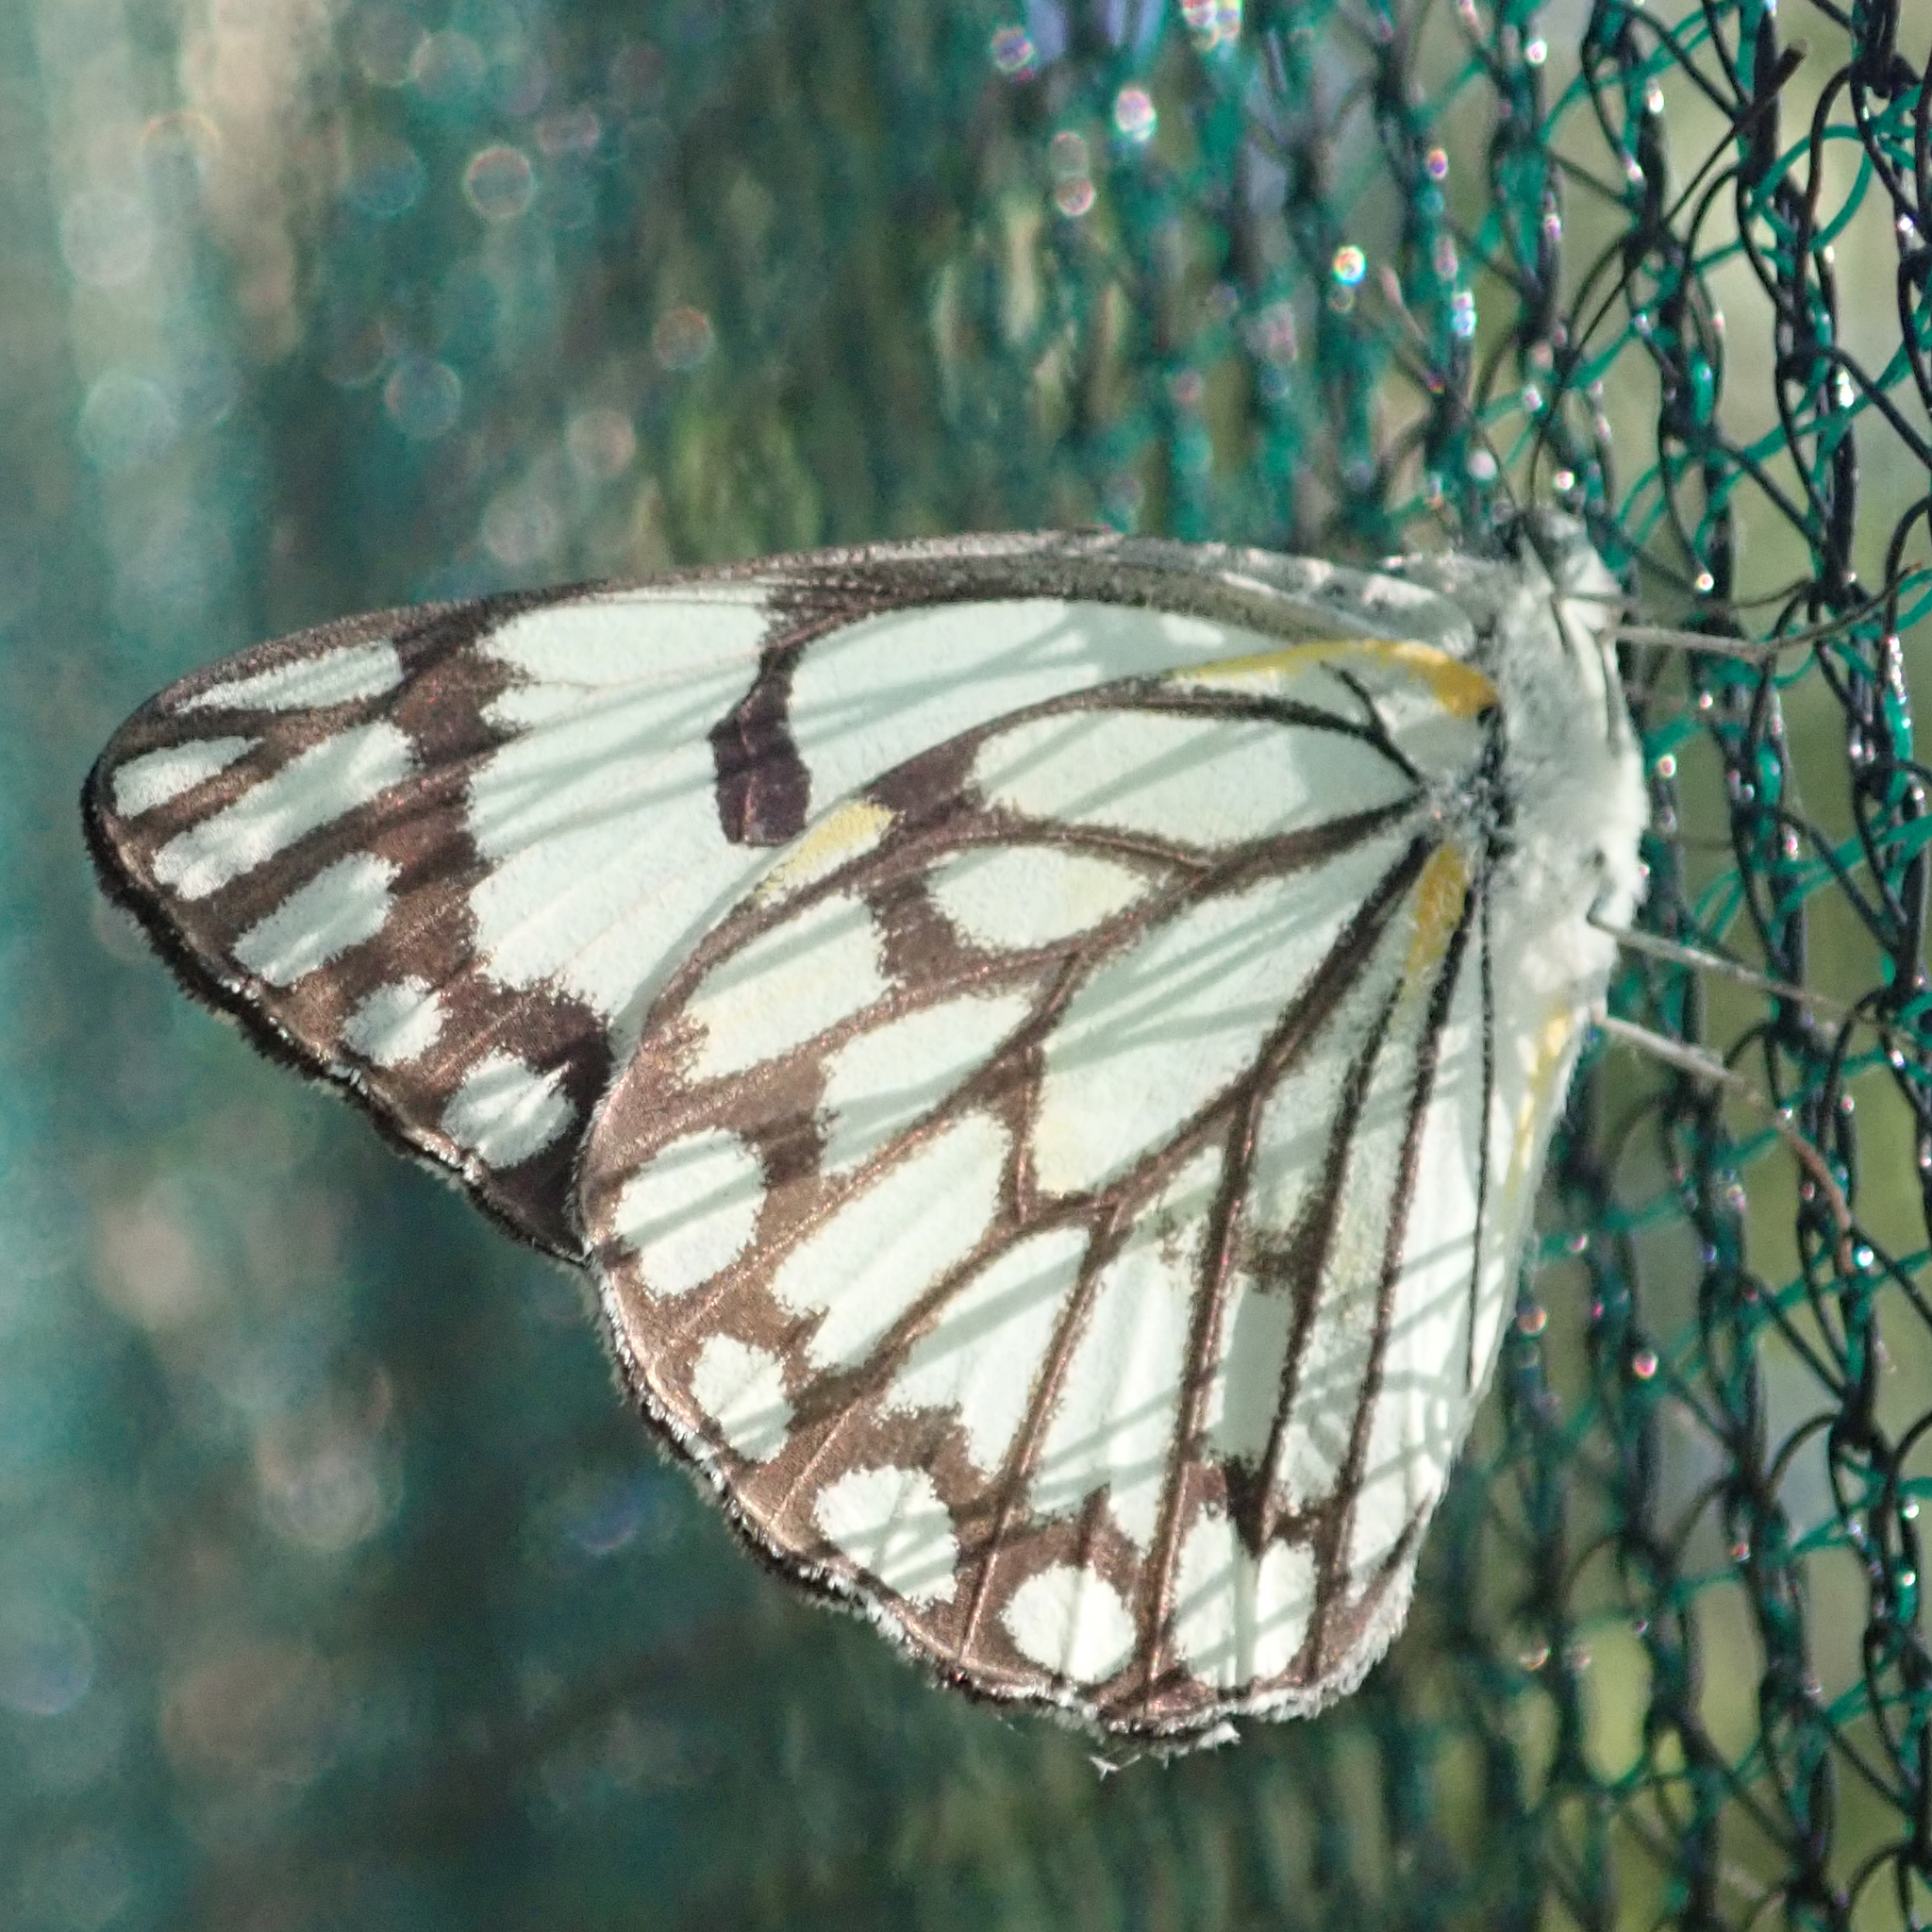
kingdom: Animalia
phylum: Arthropoda
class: Insecta
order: Lepidoptera
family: Pieridae
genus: Belenois
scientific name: Belenois aurota
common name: Brown-veined white
